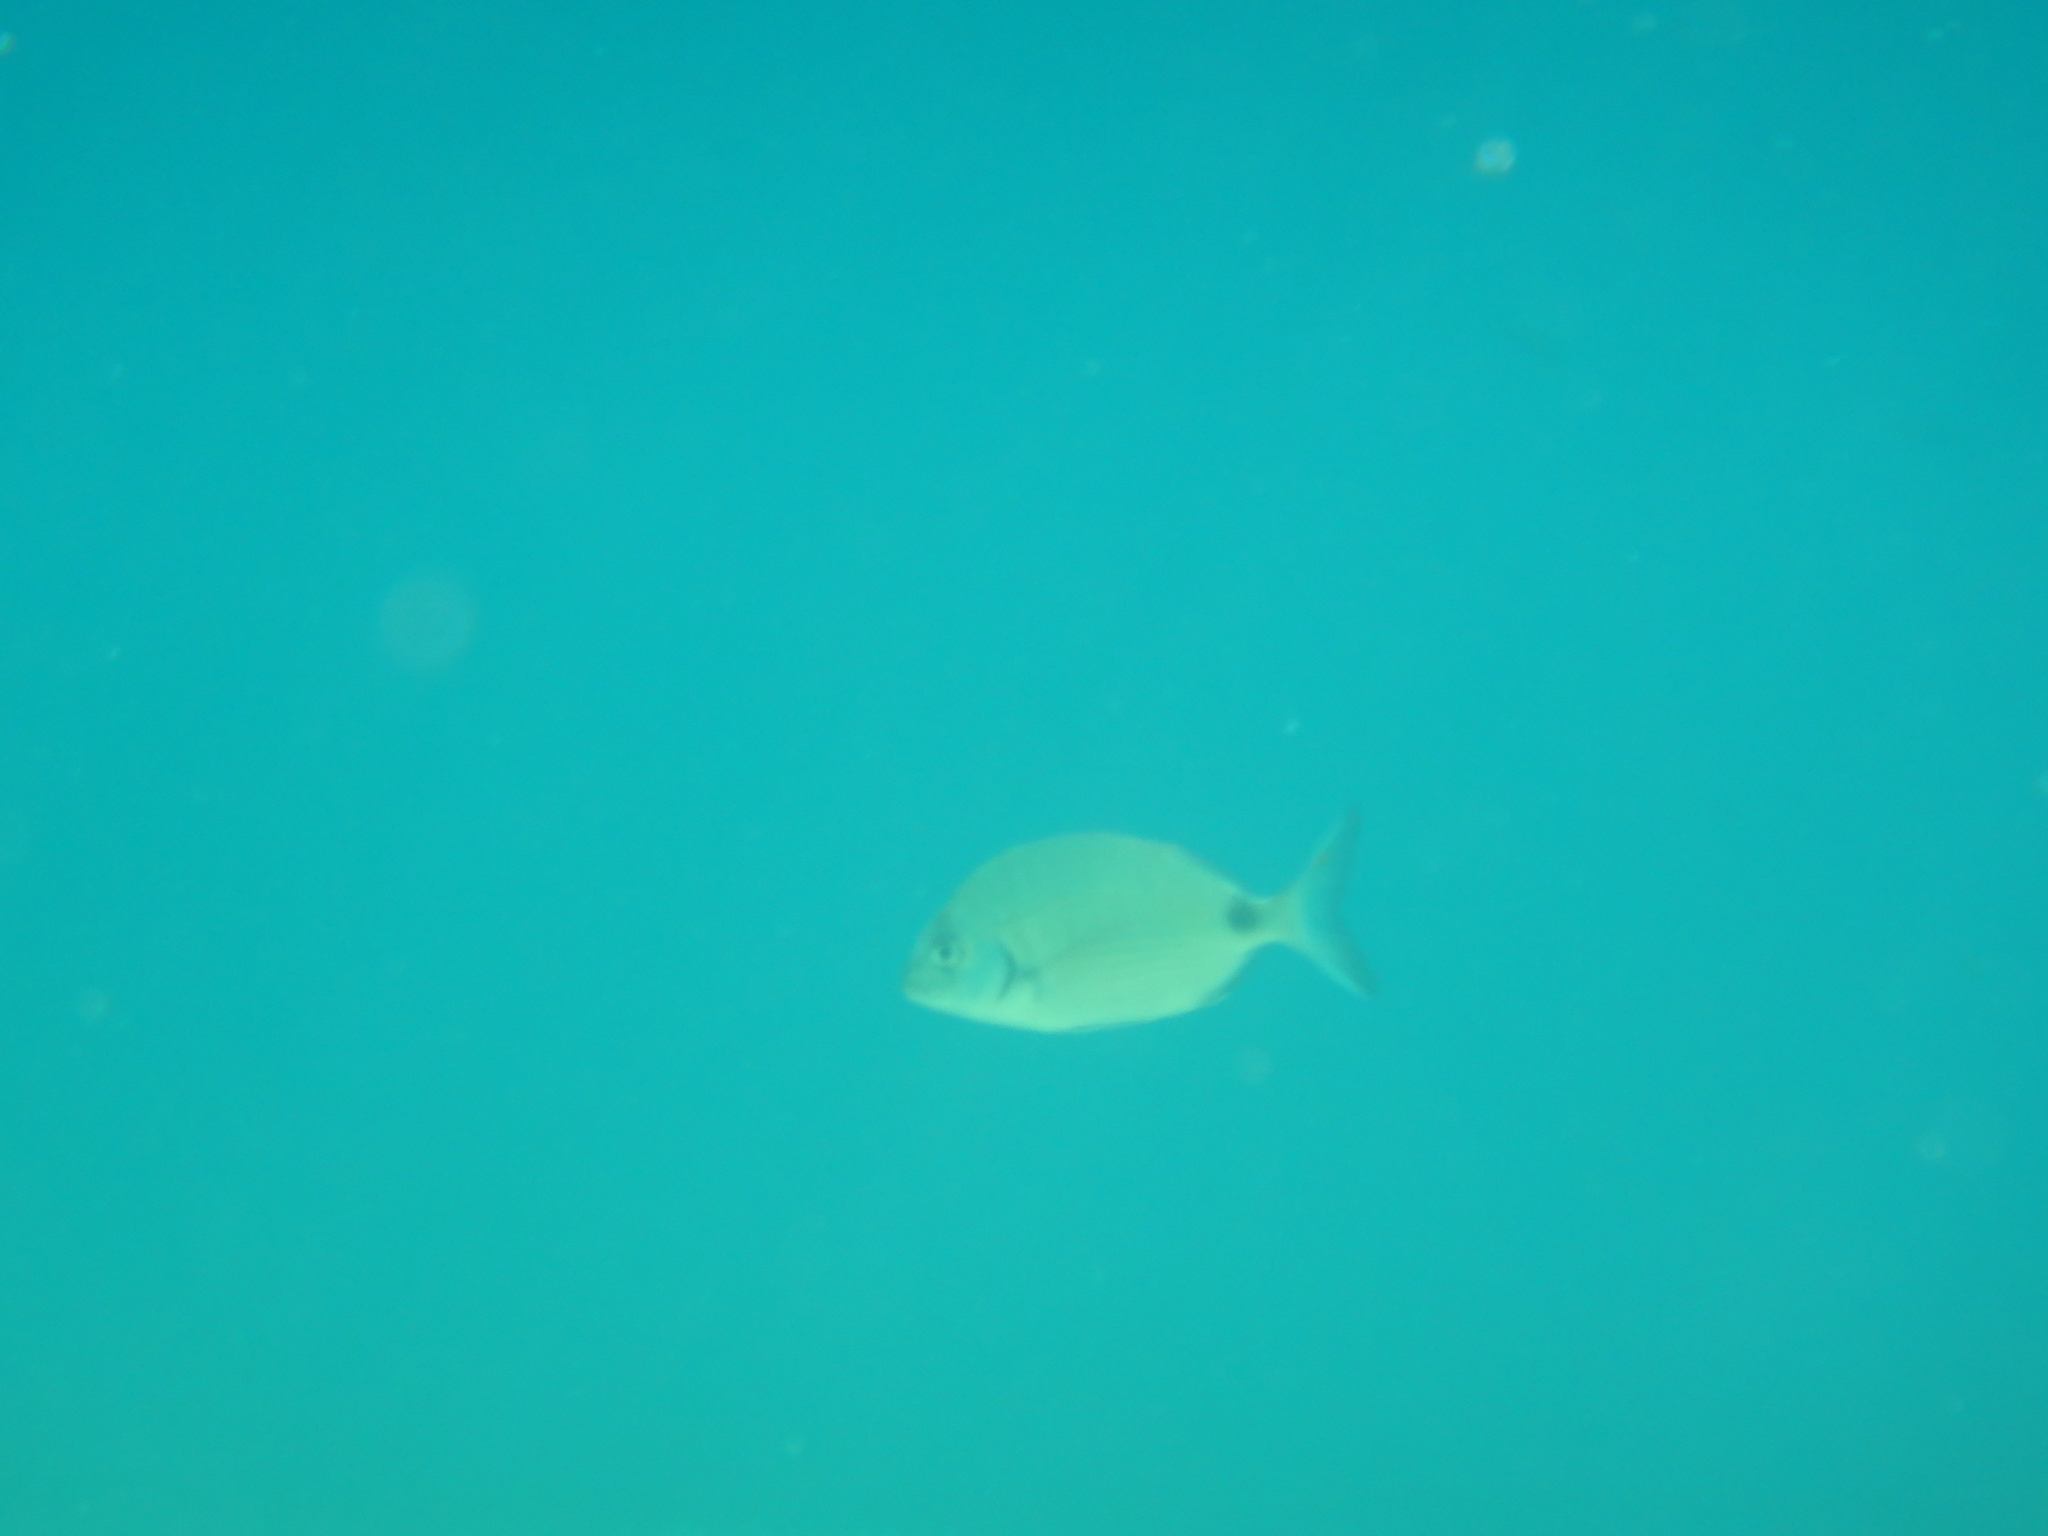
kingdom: Animalia
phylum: Chordata
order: Perciformes
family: Sparidae
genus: Diplodus
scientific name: Diplodus sargus
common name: White seabream
